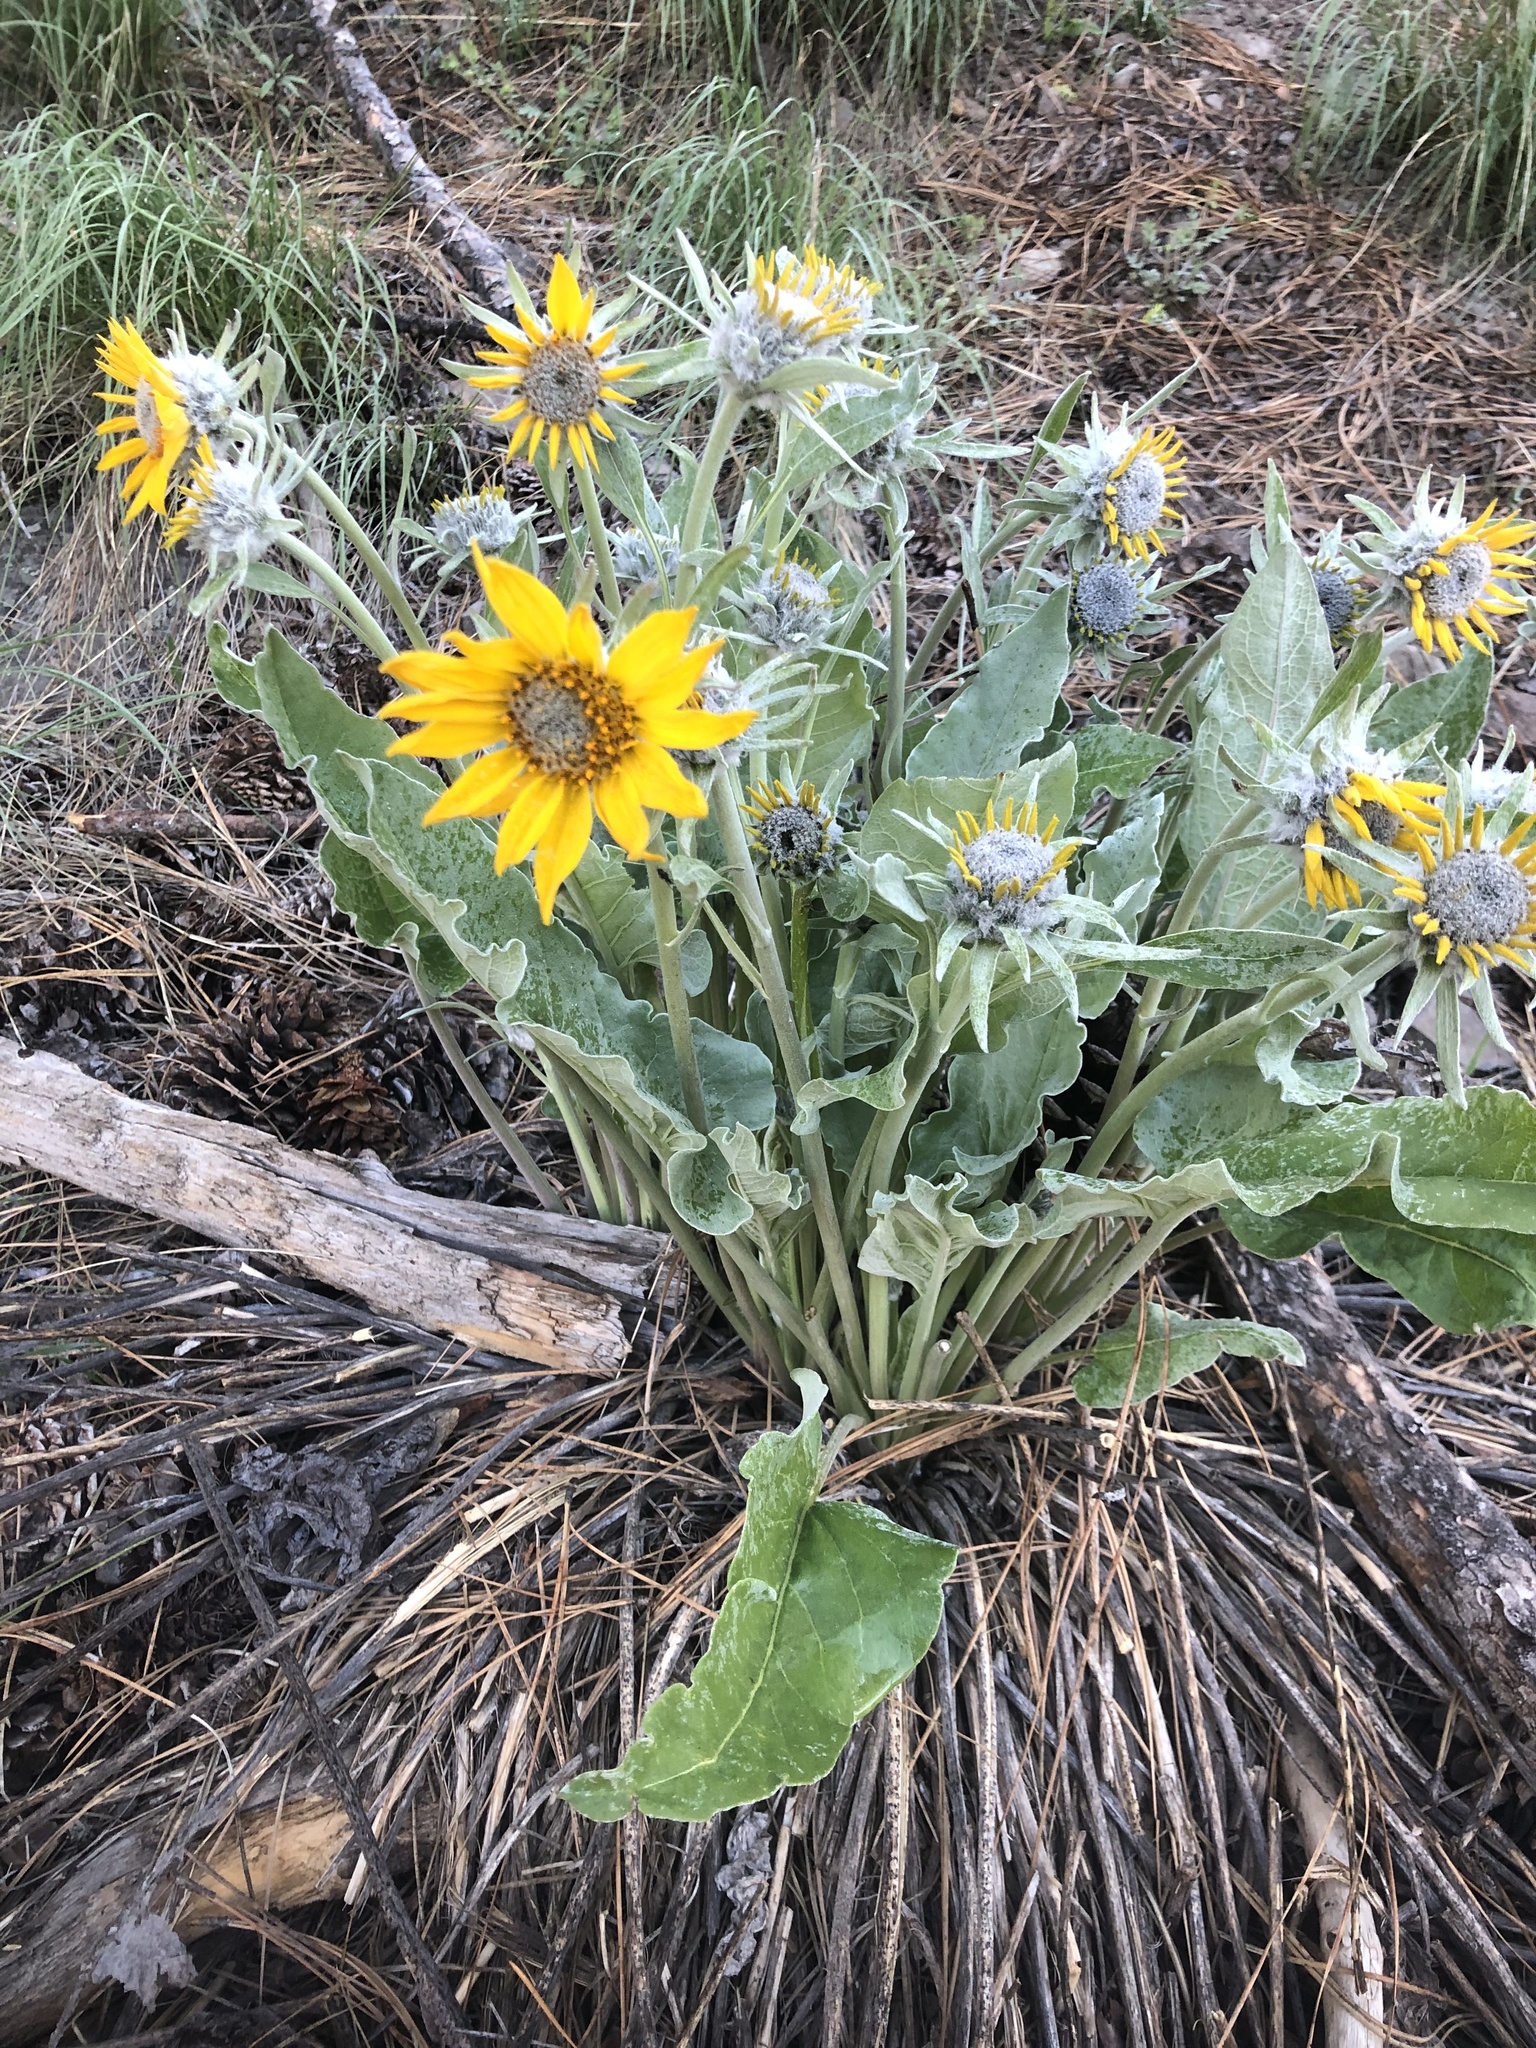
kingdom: Plantae
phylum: Tracheophyta
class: Magnoliopsida
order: Asterales
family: Asteraceae
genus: Wyethia
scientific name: Wyethia sagittata
